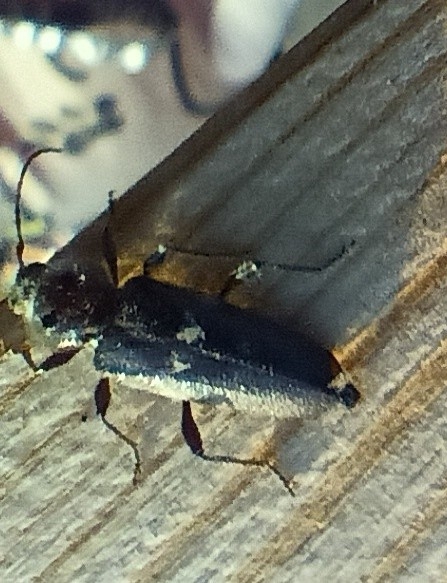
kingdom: Animalia
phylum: Arthropoda
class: Insecta
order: Coleoptera
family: Cerambycidae
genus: Hylotrupes
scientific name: Hylotrupes bajulus
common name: Old house borer
